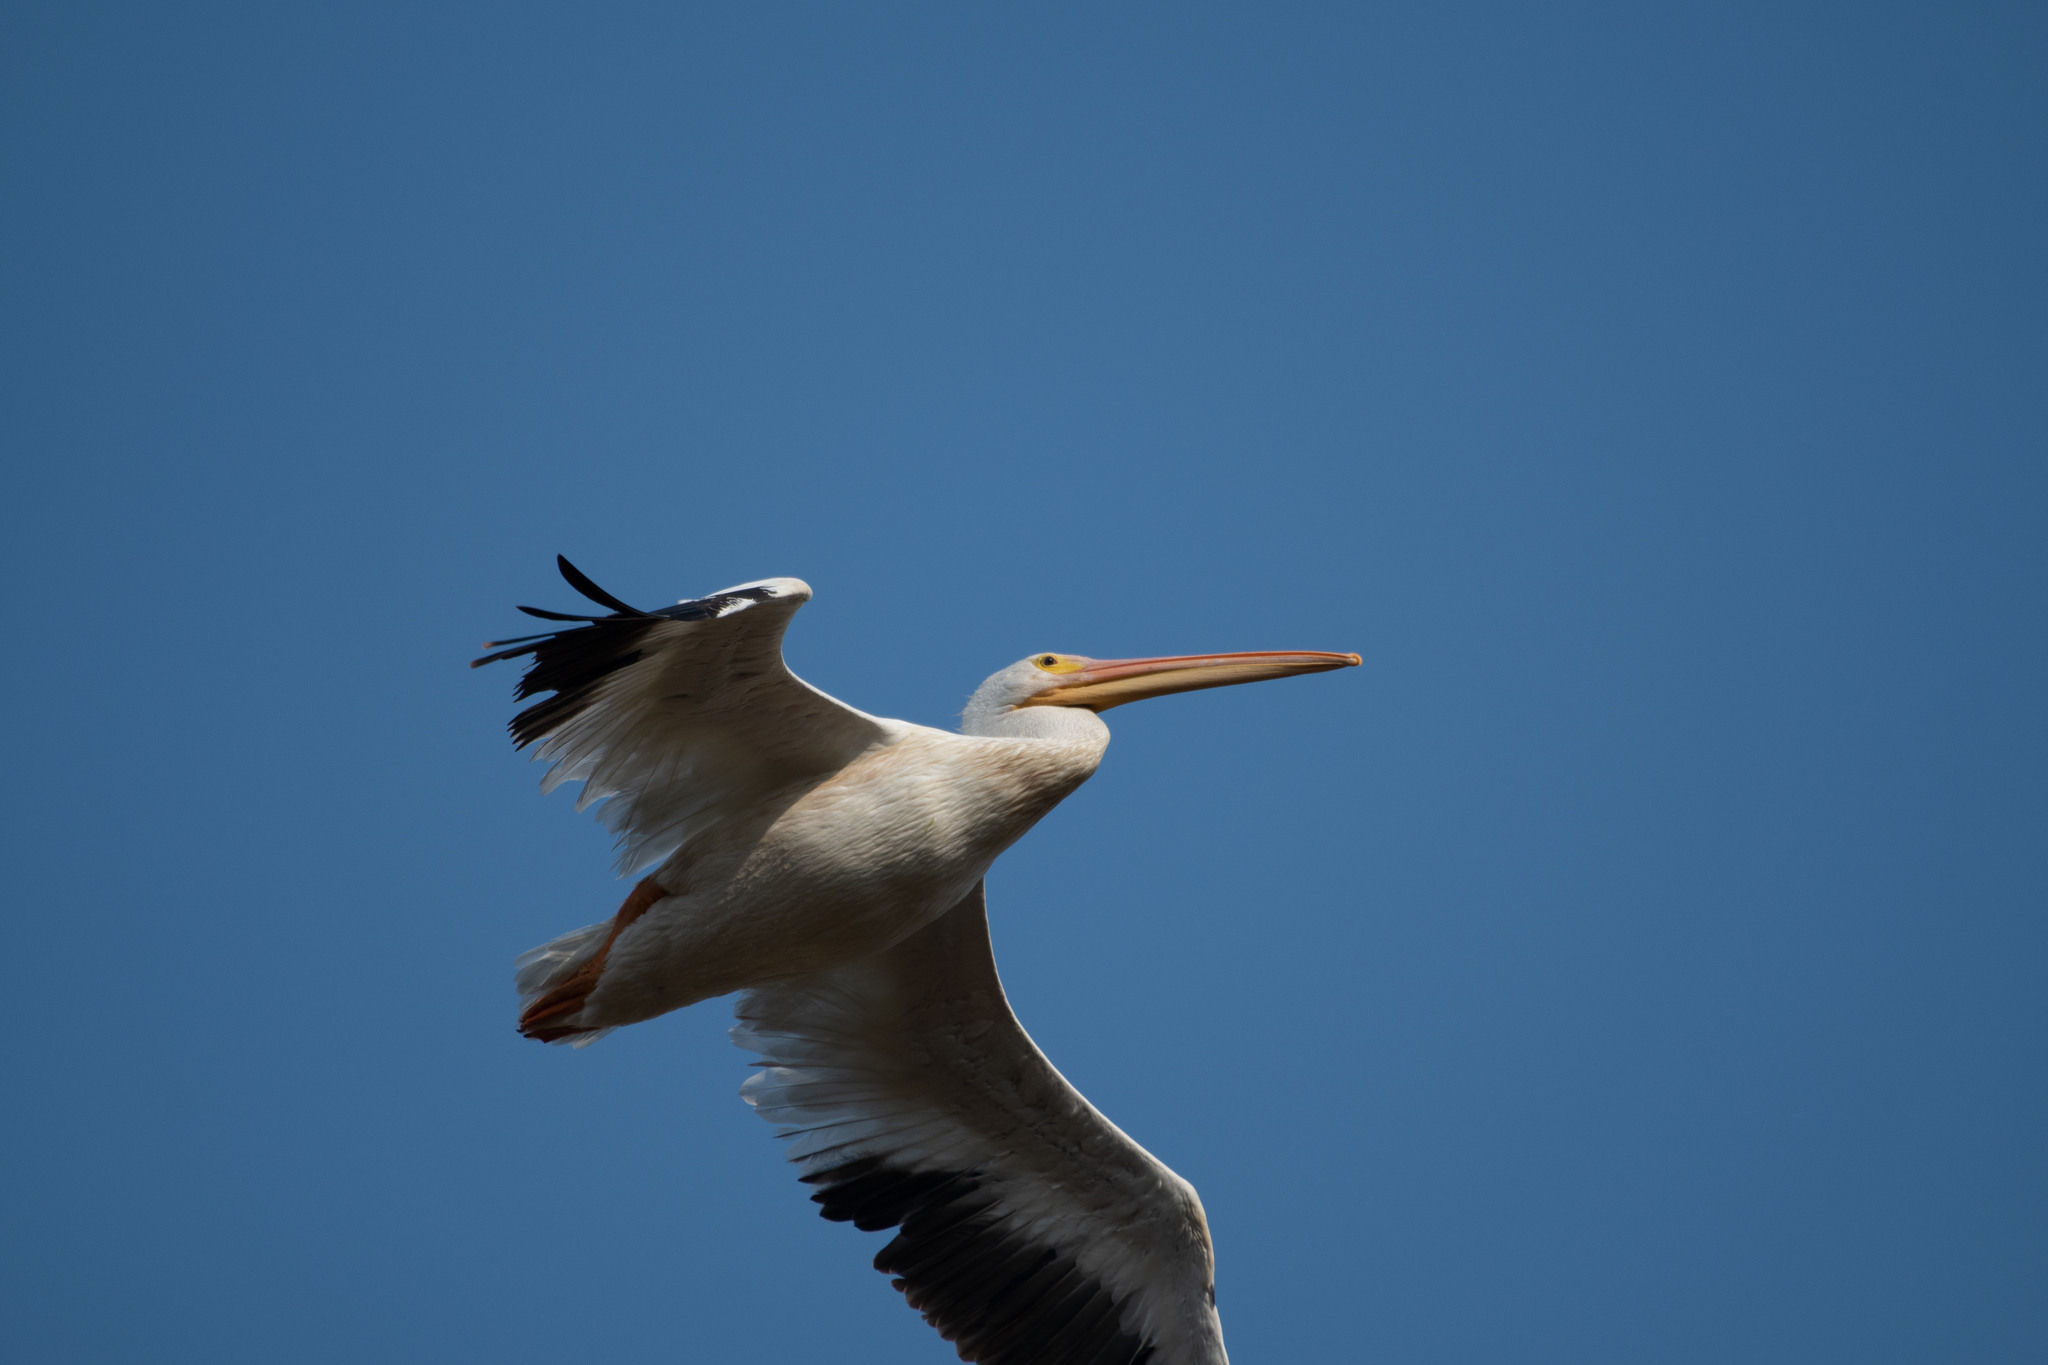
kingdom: Animalia
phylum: Chordata
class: Aves
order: Pelecaniformes
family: Pelecanidae
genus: Pelecanus
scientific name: Pelecanus erythrorhynchos
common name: American white pelican
